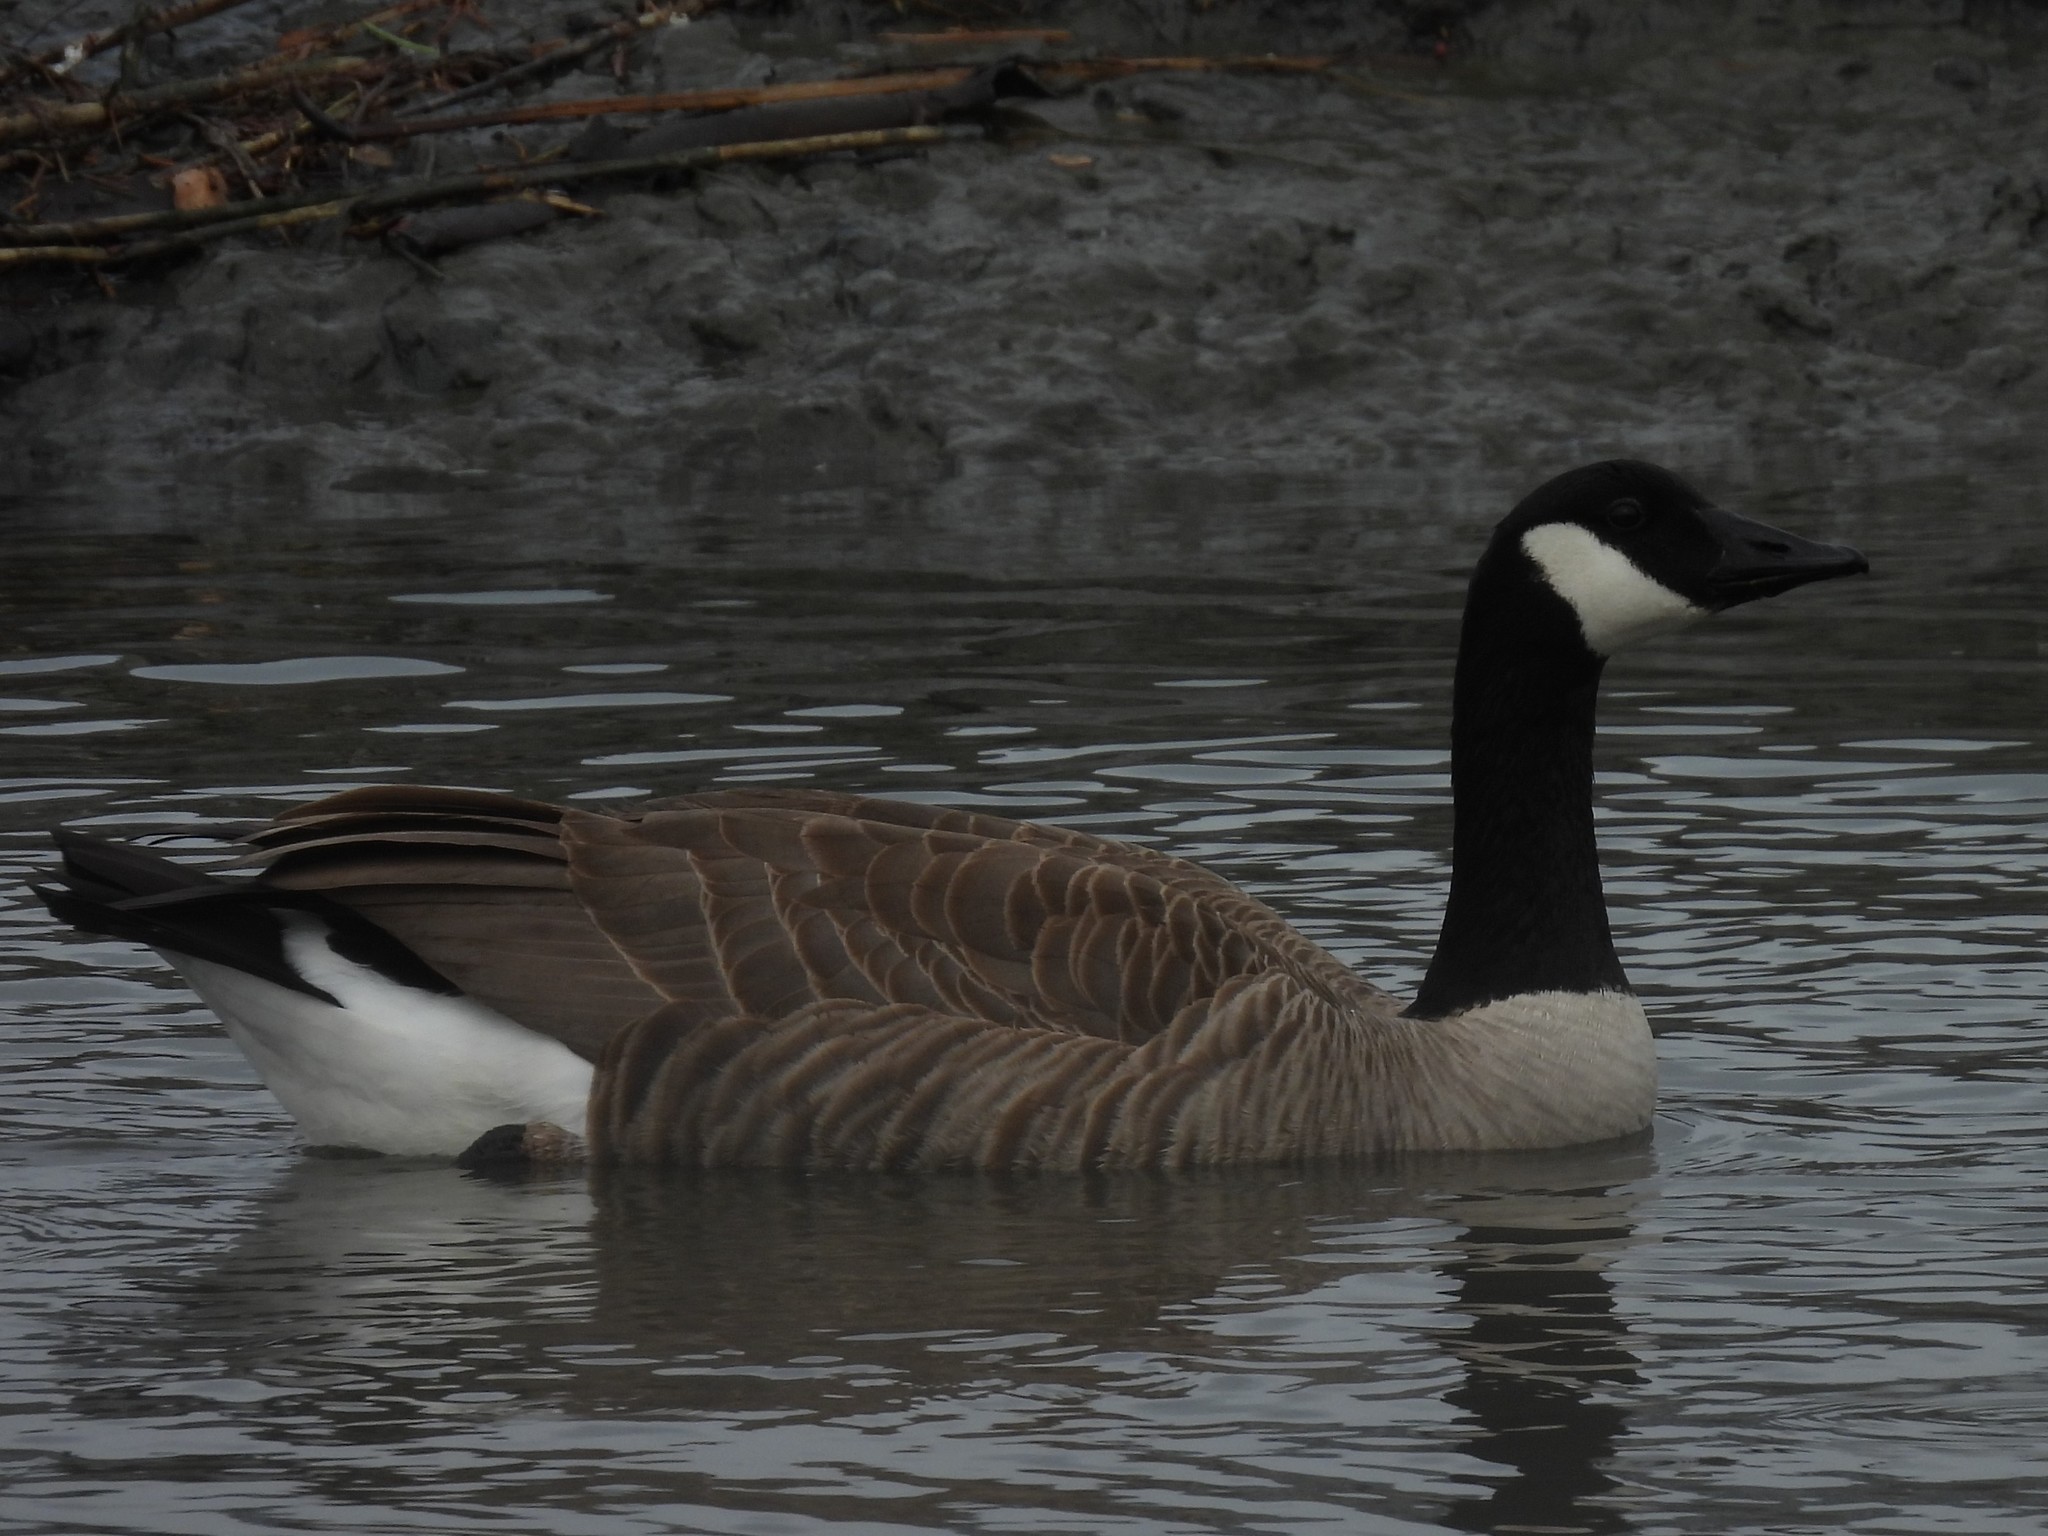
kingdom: Animalia
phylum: Chordata
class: Aves
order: Anseriformes
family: Anatidae
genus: Branta
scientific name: Branta canadensis
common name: Canada goose
